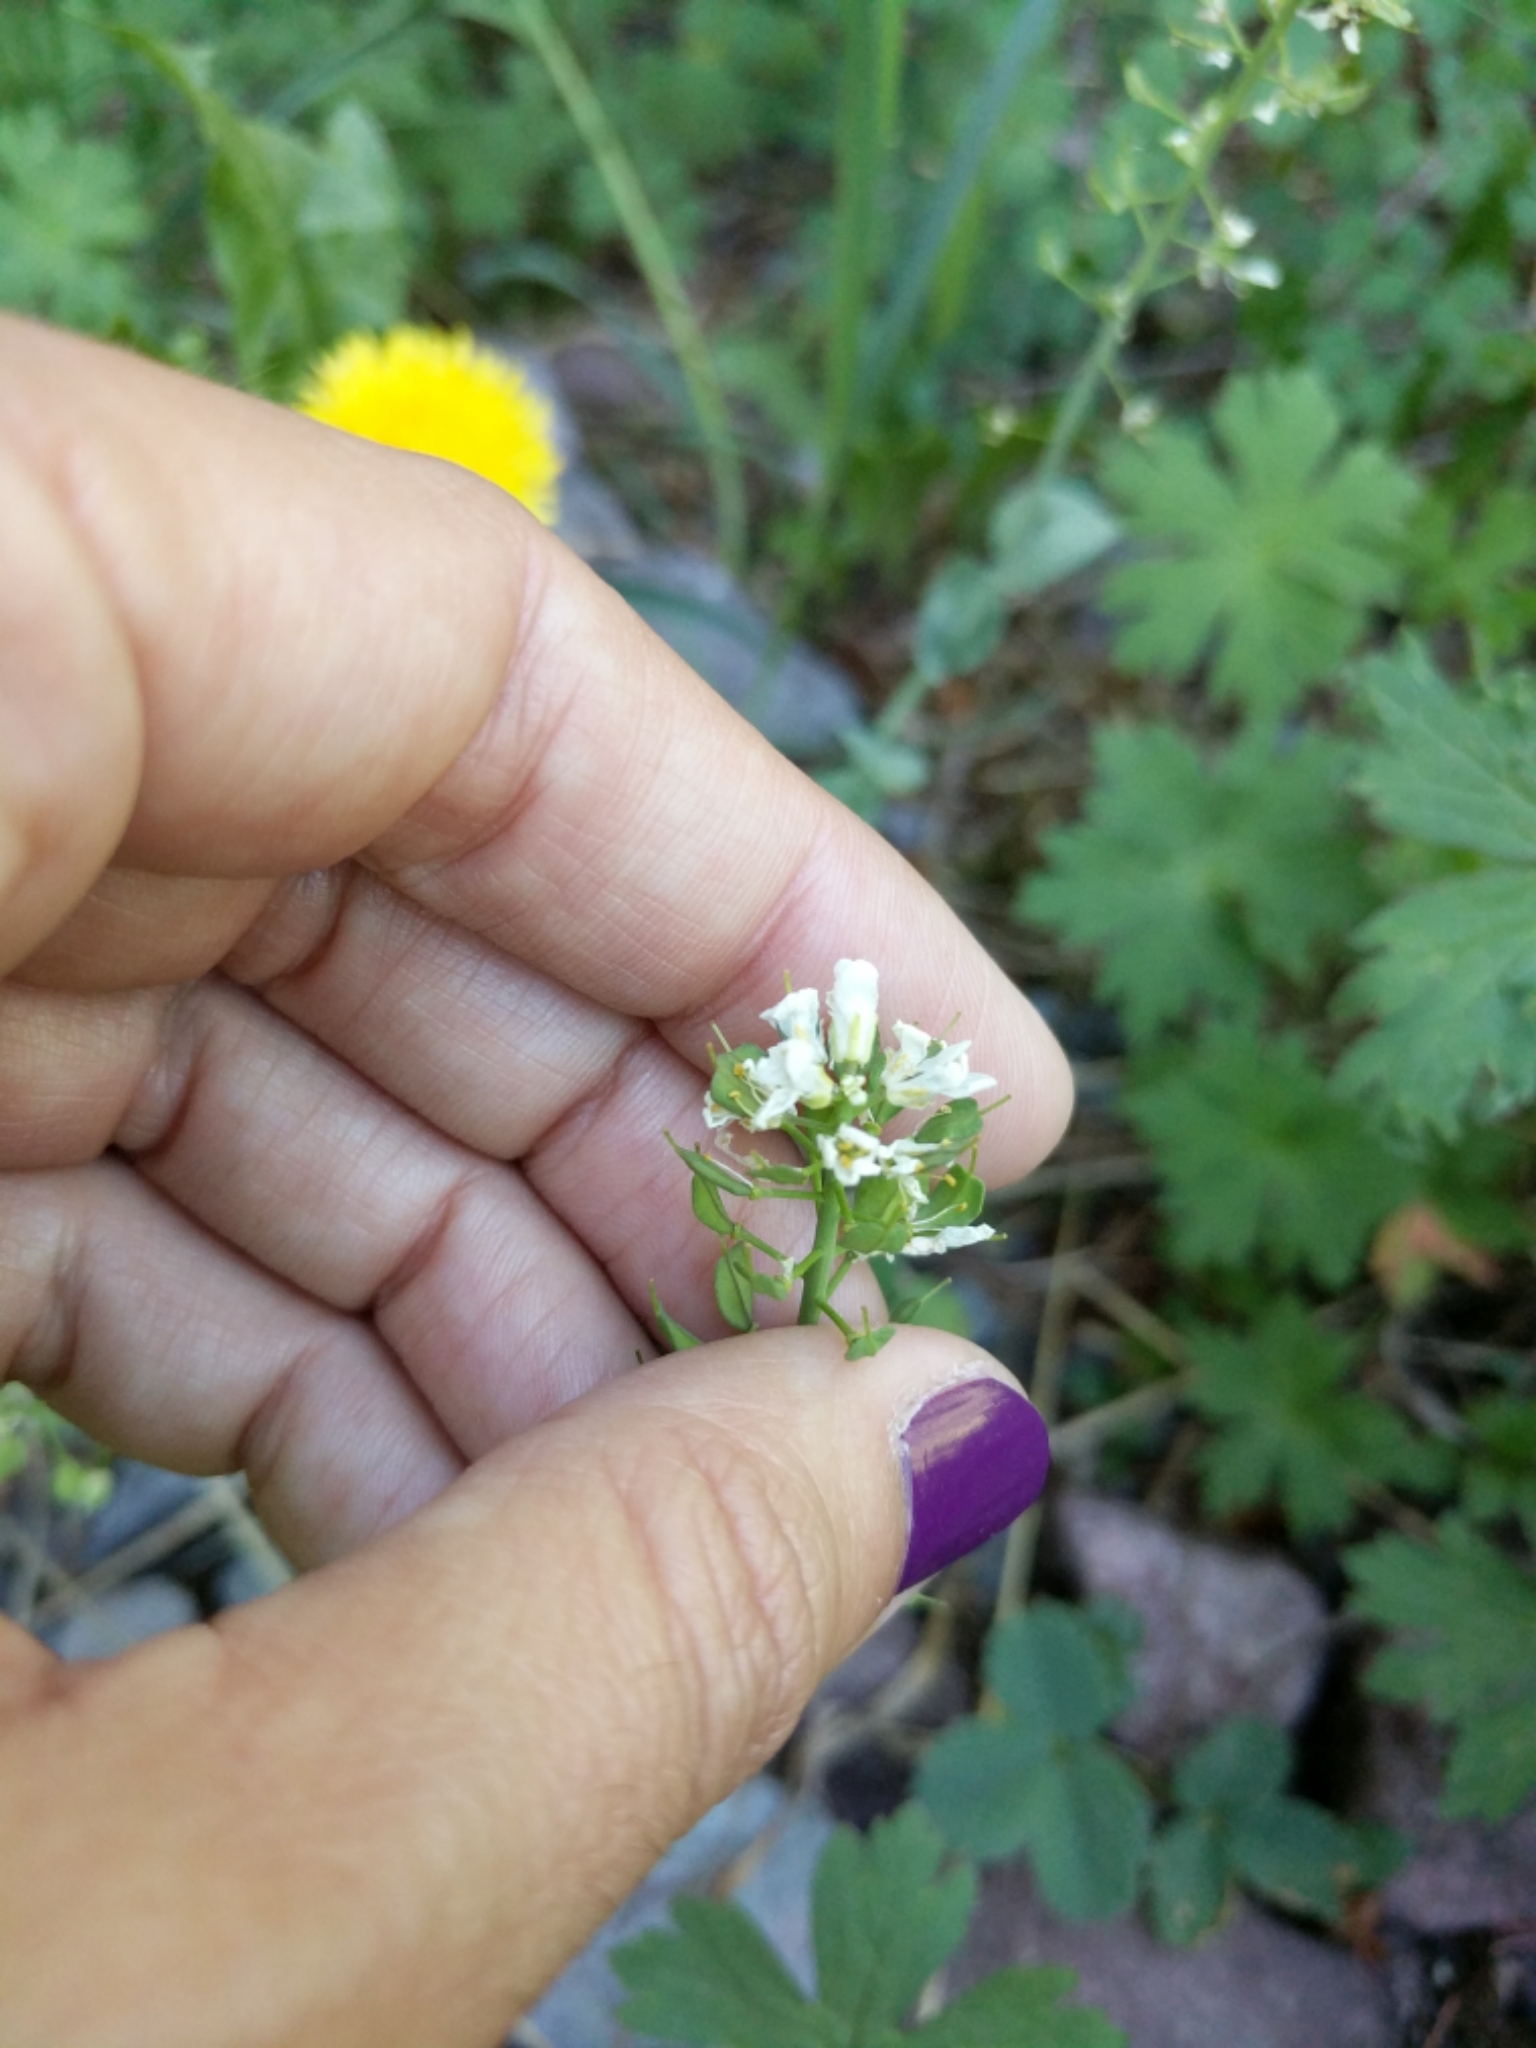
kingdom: Plantae
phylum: Tracheophyta
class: Magnoliopsida
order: Brassicales
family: Brassicaceae
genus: Noccaea
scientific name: Noccaea fendleri
